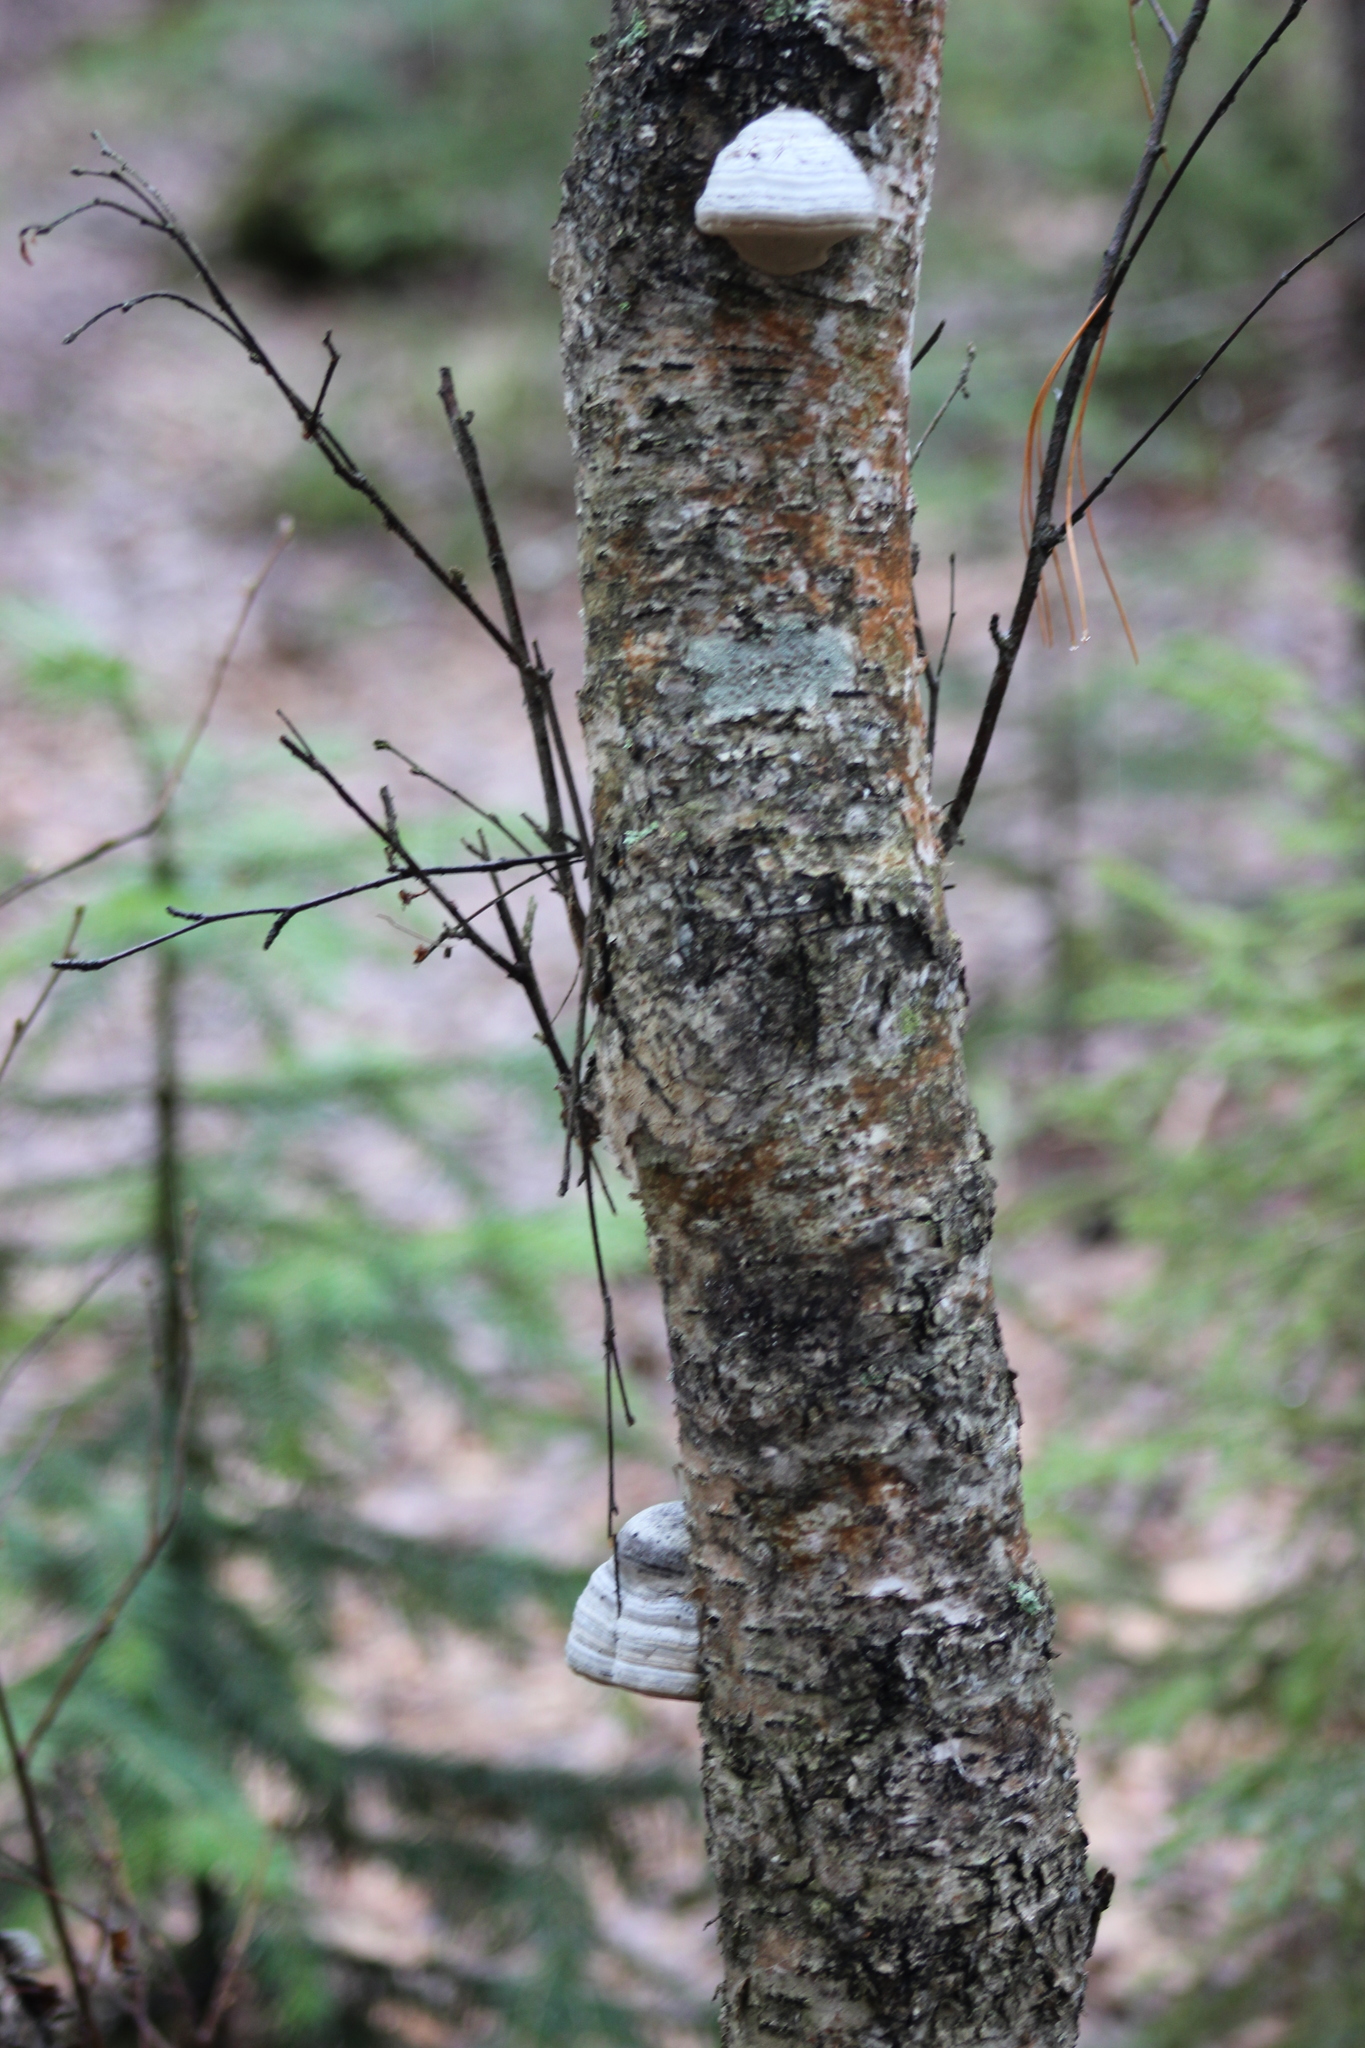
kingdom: Fungi
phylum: Basidiomycota
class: Agaricomycetes
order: Polyporales
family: Polyporaceae
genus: Fomes
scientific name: Fomes fomentarius
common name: Hoof fungus
